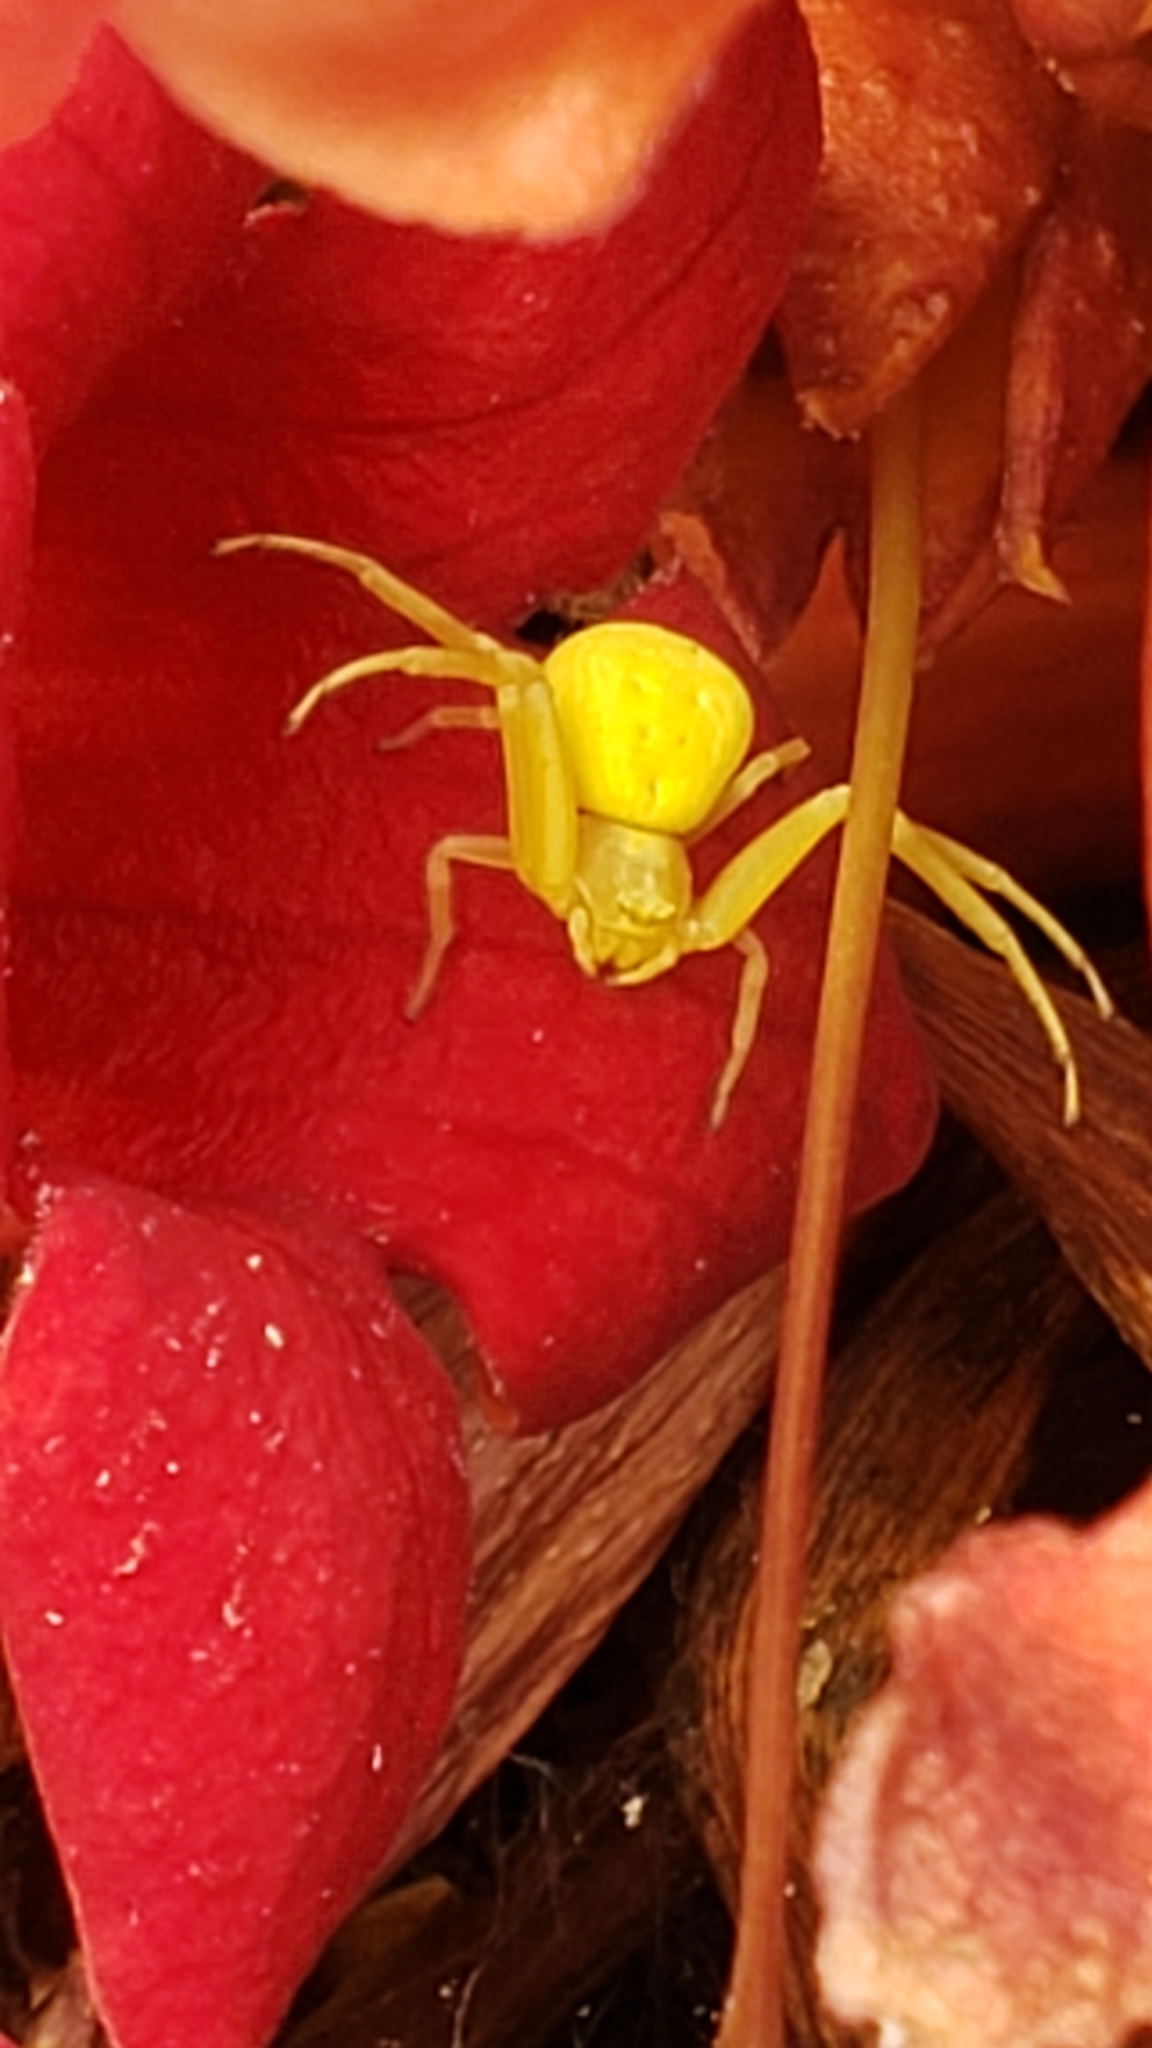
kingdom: Animalia
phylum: Arthropoda
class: Arachnida
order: Araneae
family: Thomisidae
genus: Misumena
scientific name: Misumena vatia
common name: Goldenrod crab spider
